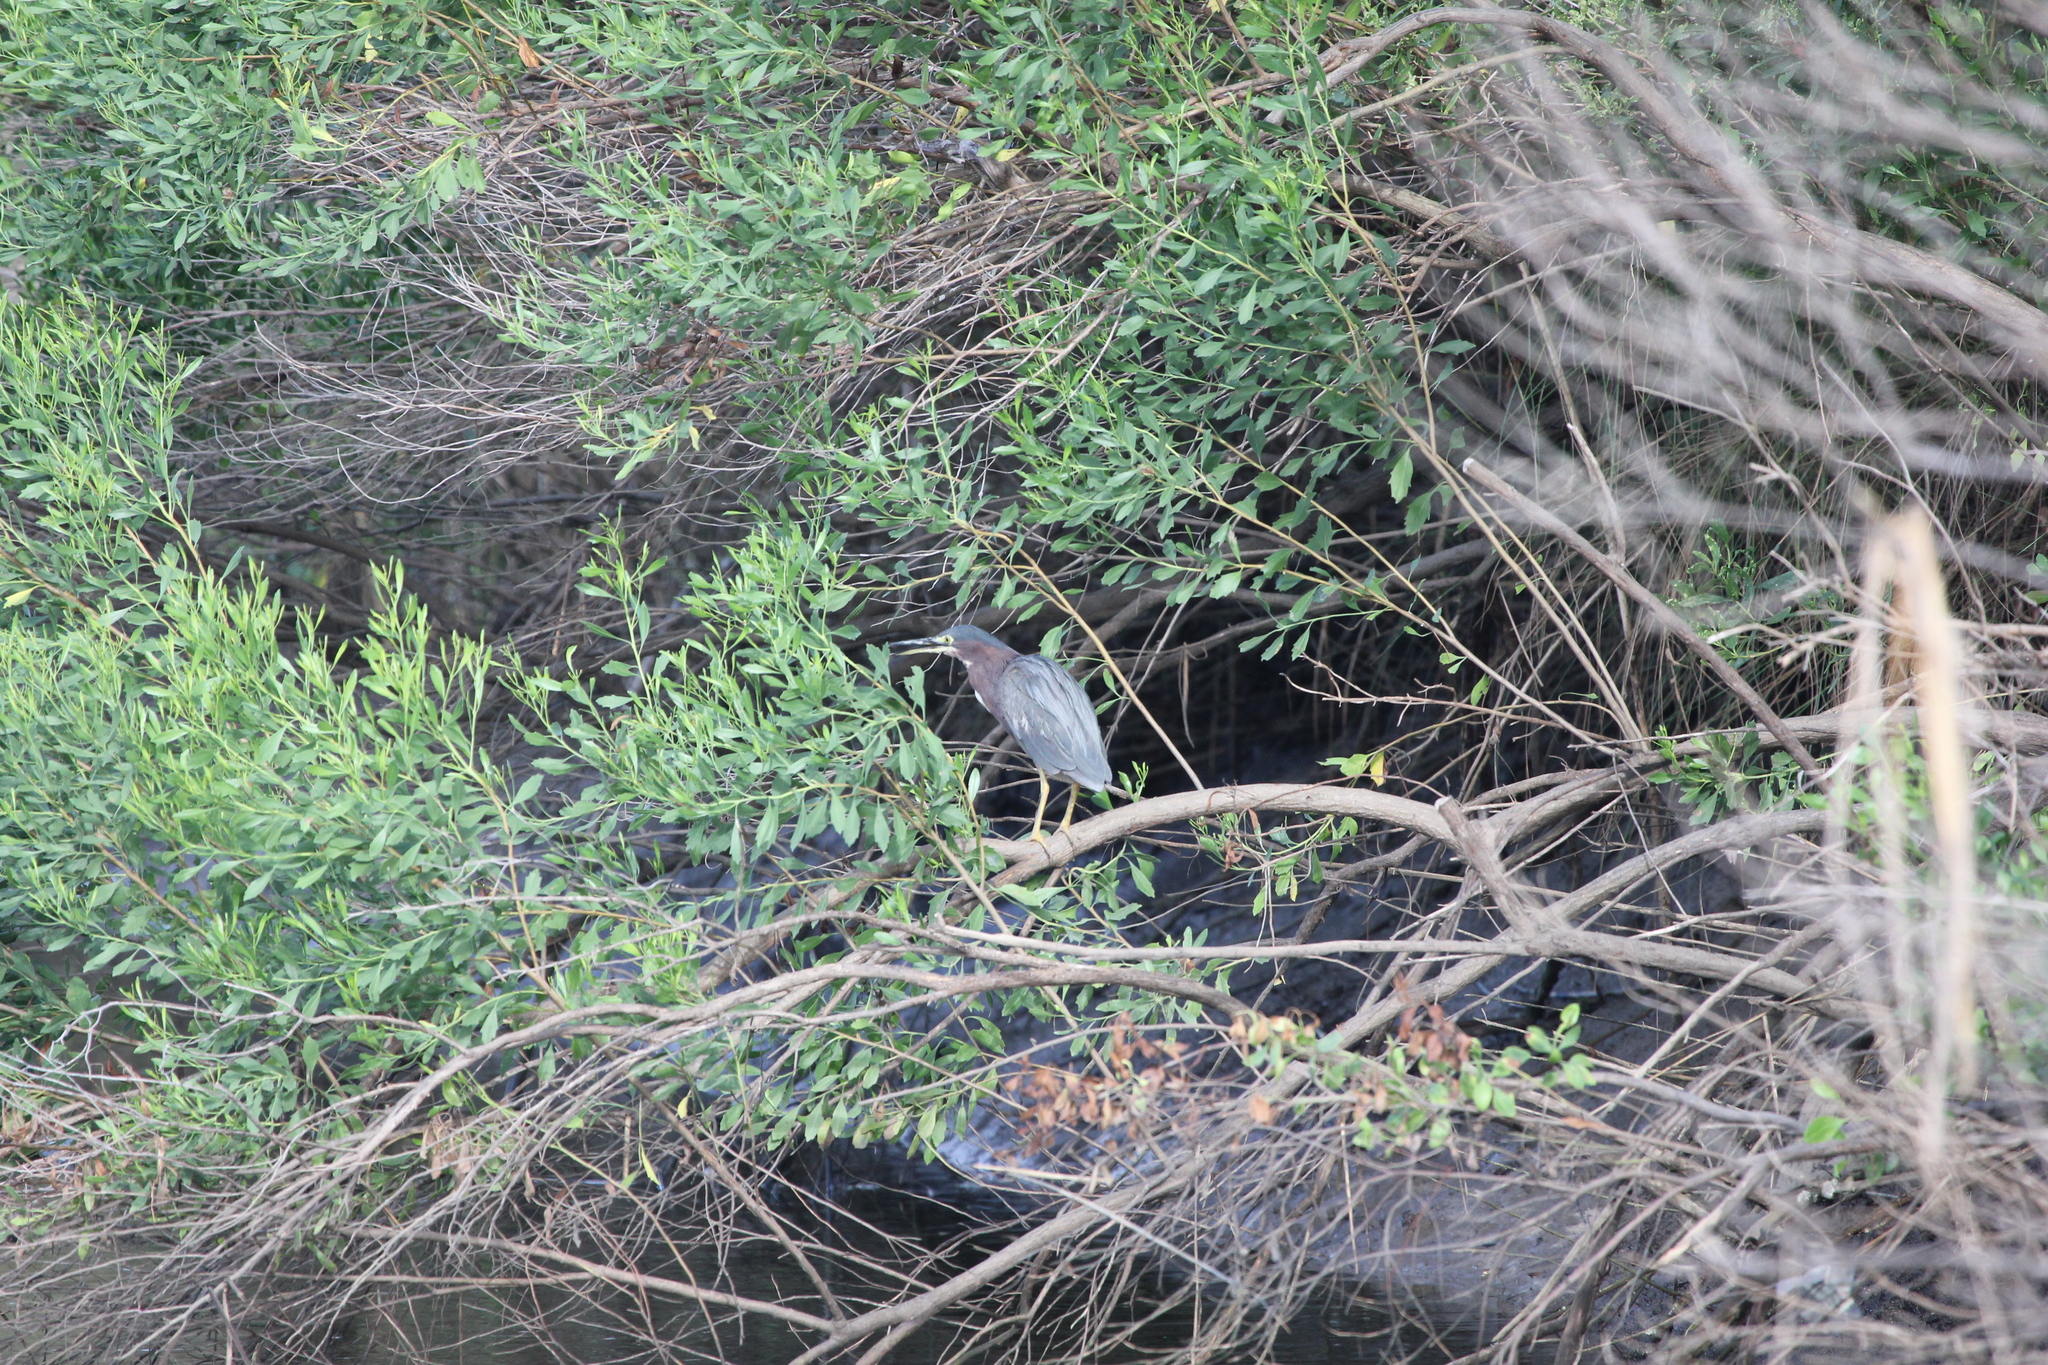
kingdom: Animalia
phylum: Chordata
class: Aves
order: Pelecaniformes
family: Ardeidae
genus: Butorides
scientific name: Butorides virescens
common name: Green heron
